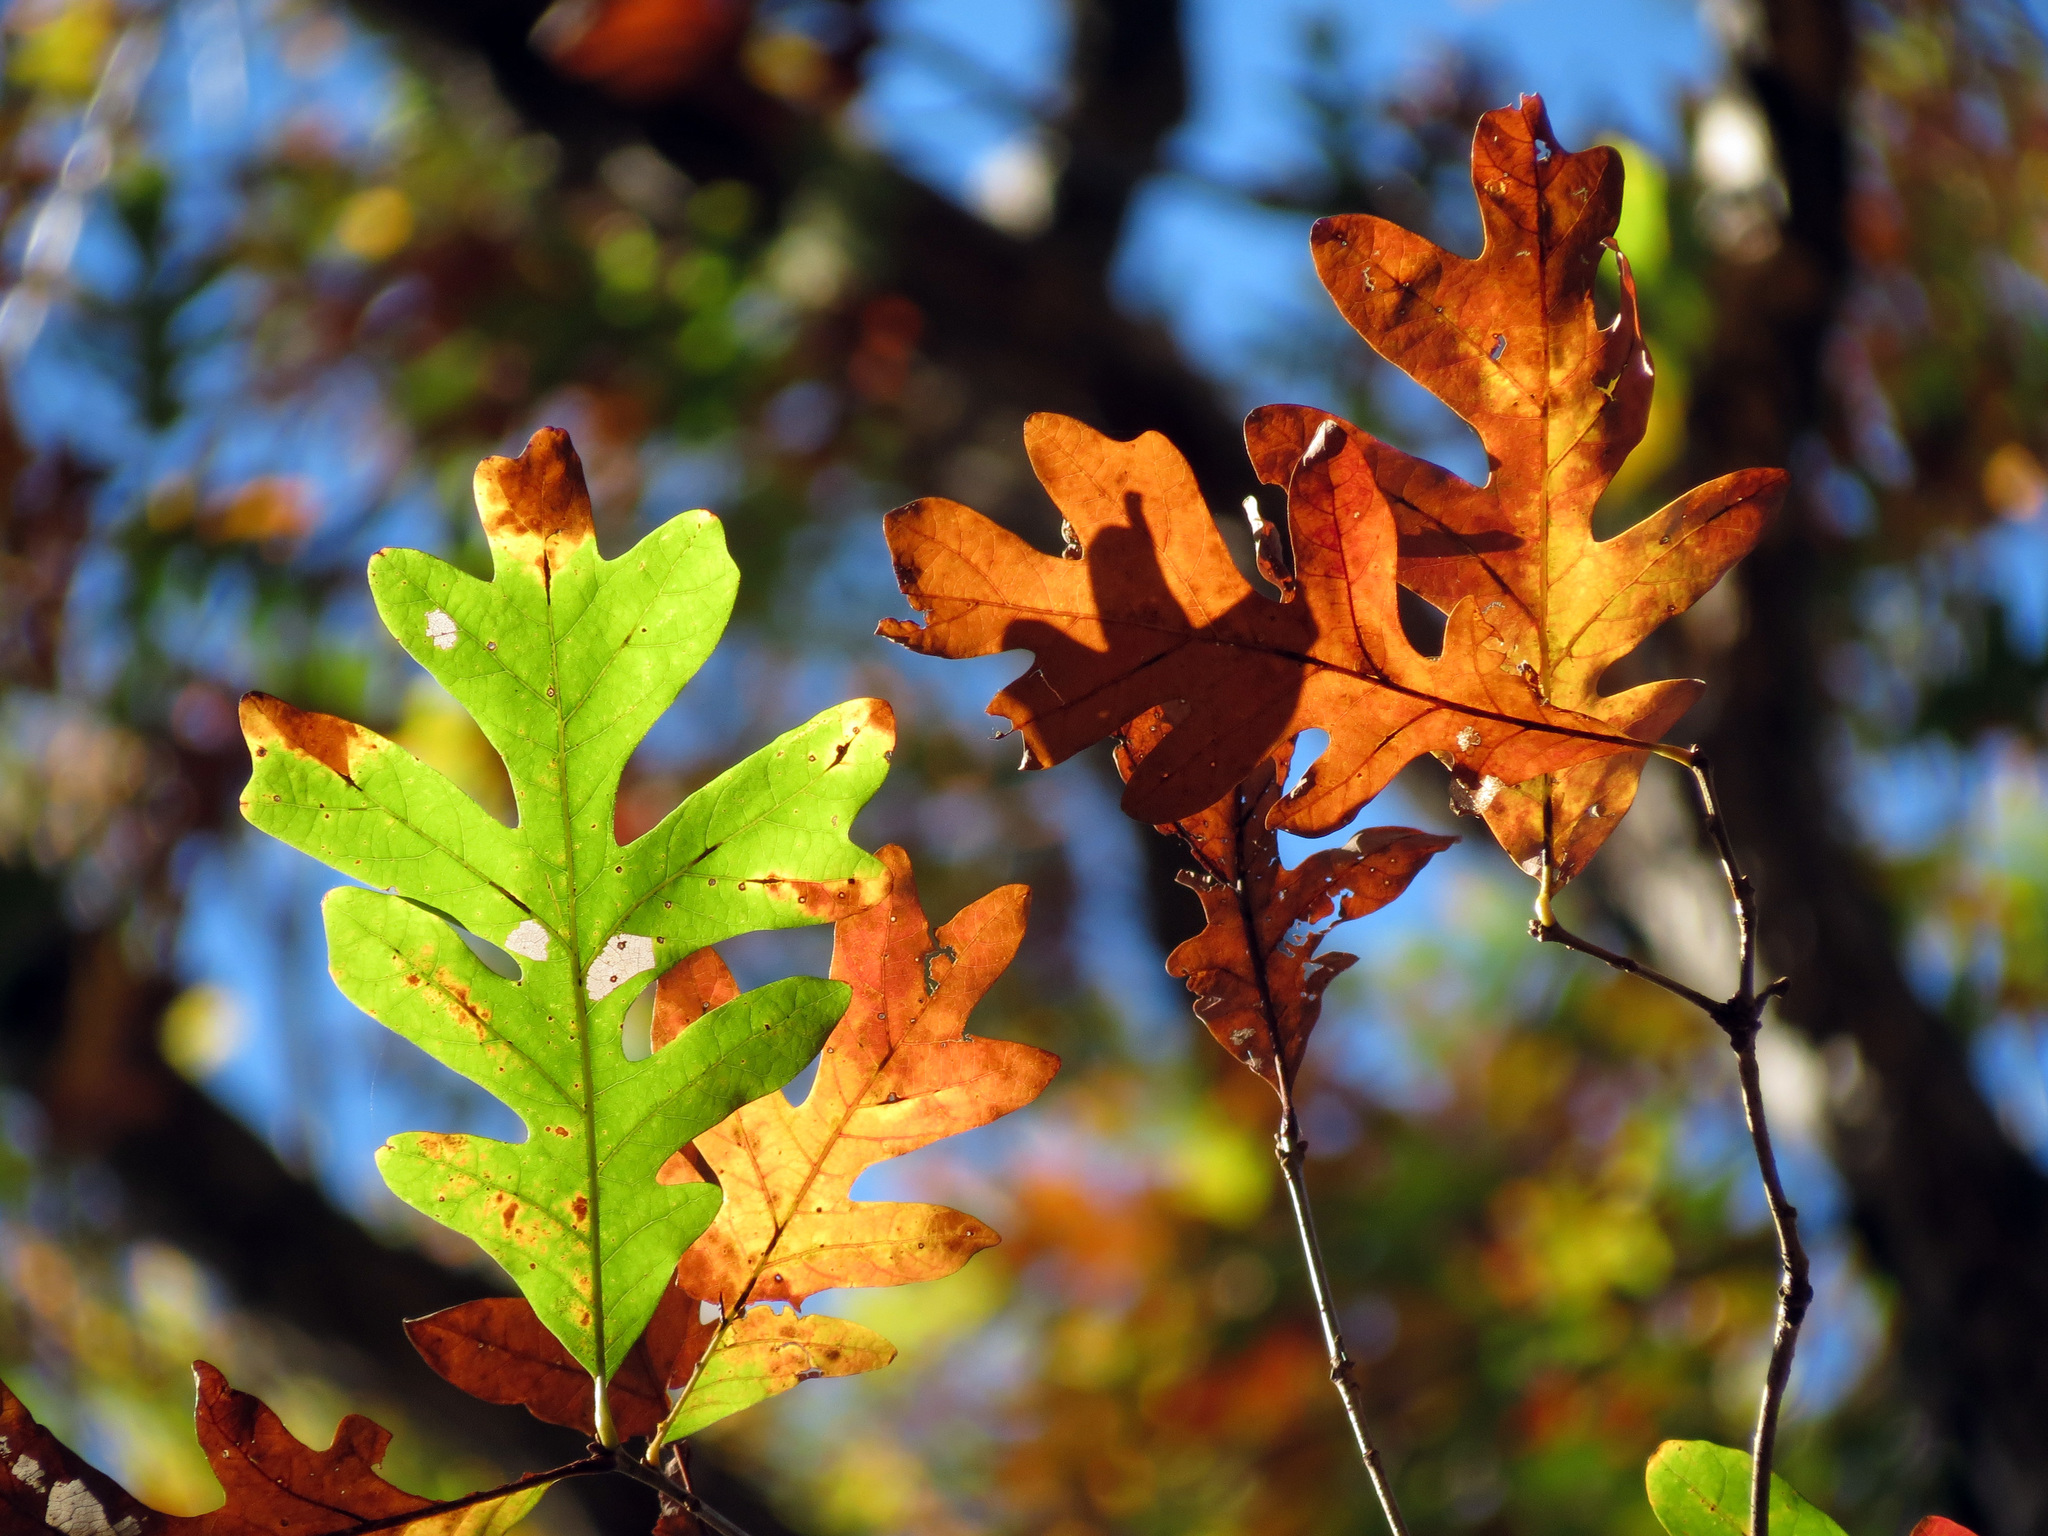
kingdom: Plantae
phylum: Tracheophyta
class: Magnoliopsida
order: Fagales
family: Fagaceae
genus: Quercus
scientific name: Quercus alba
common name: White oak
